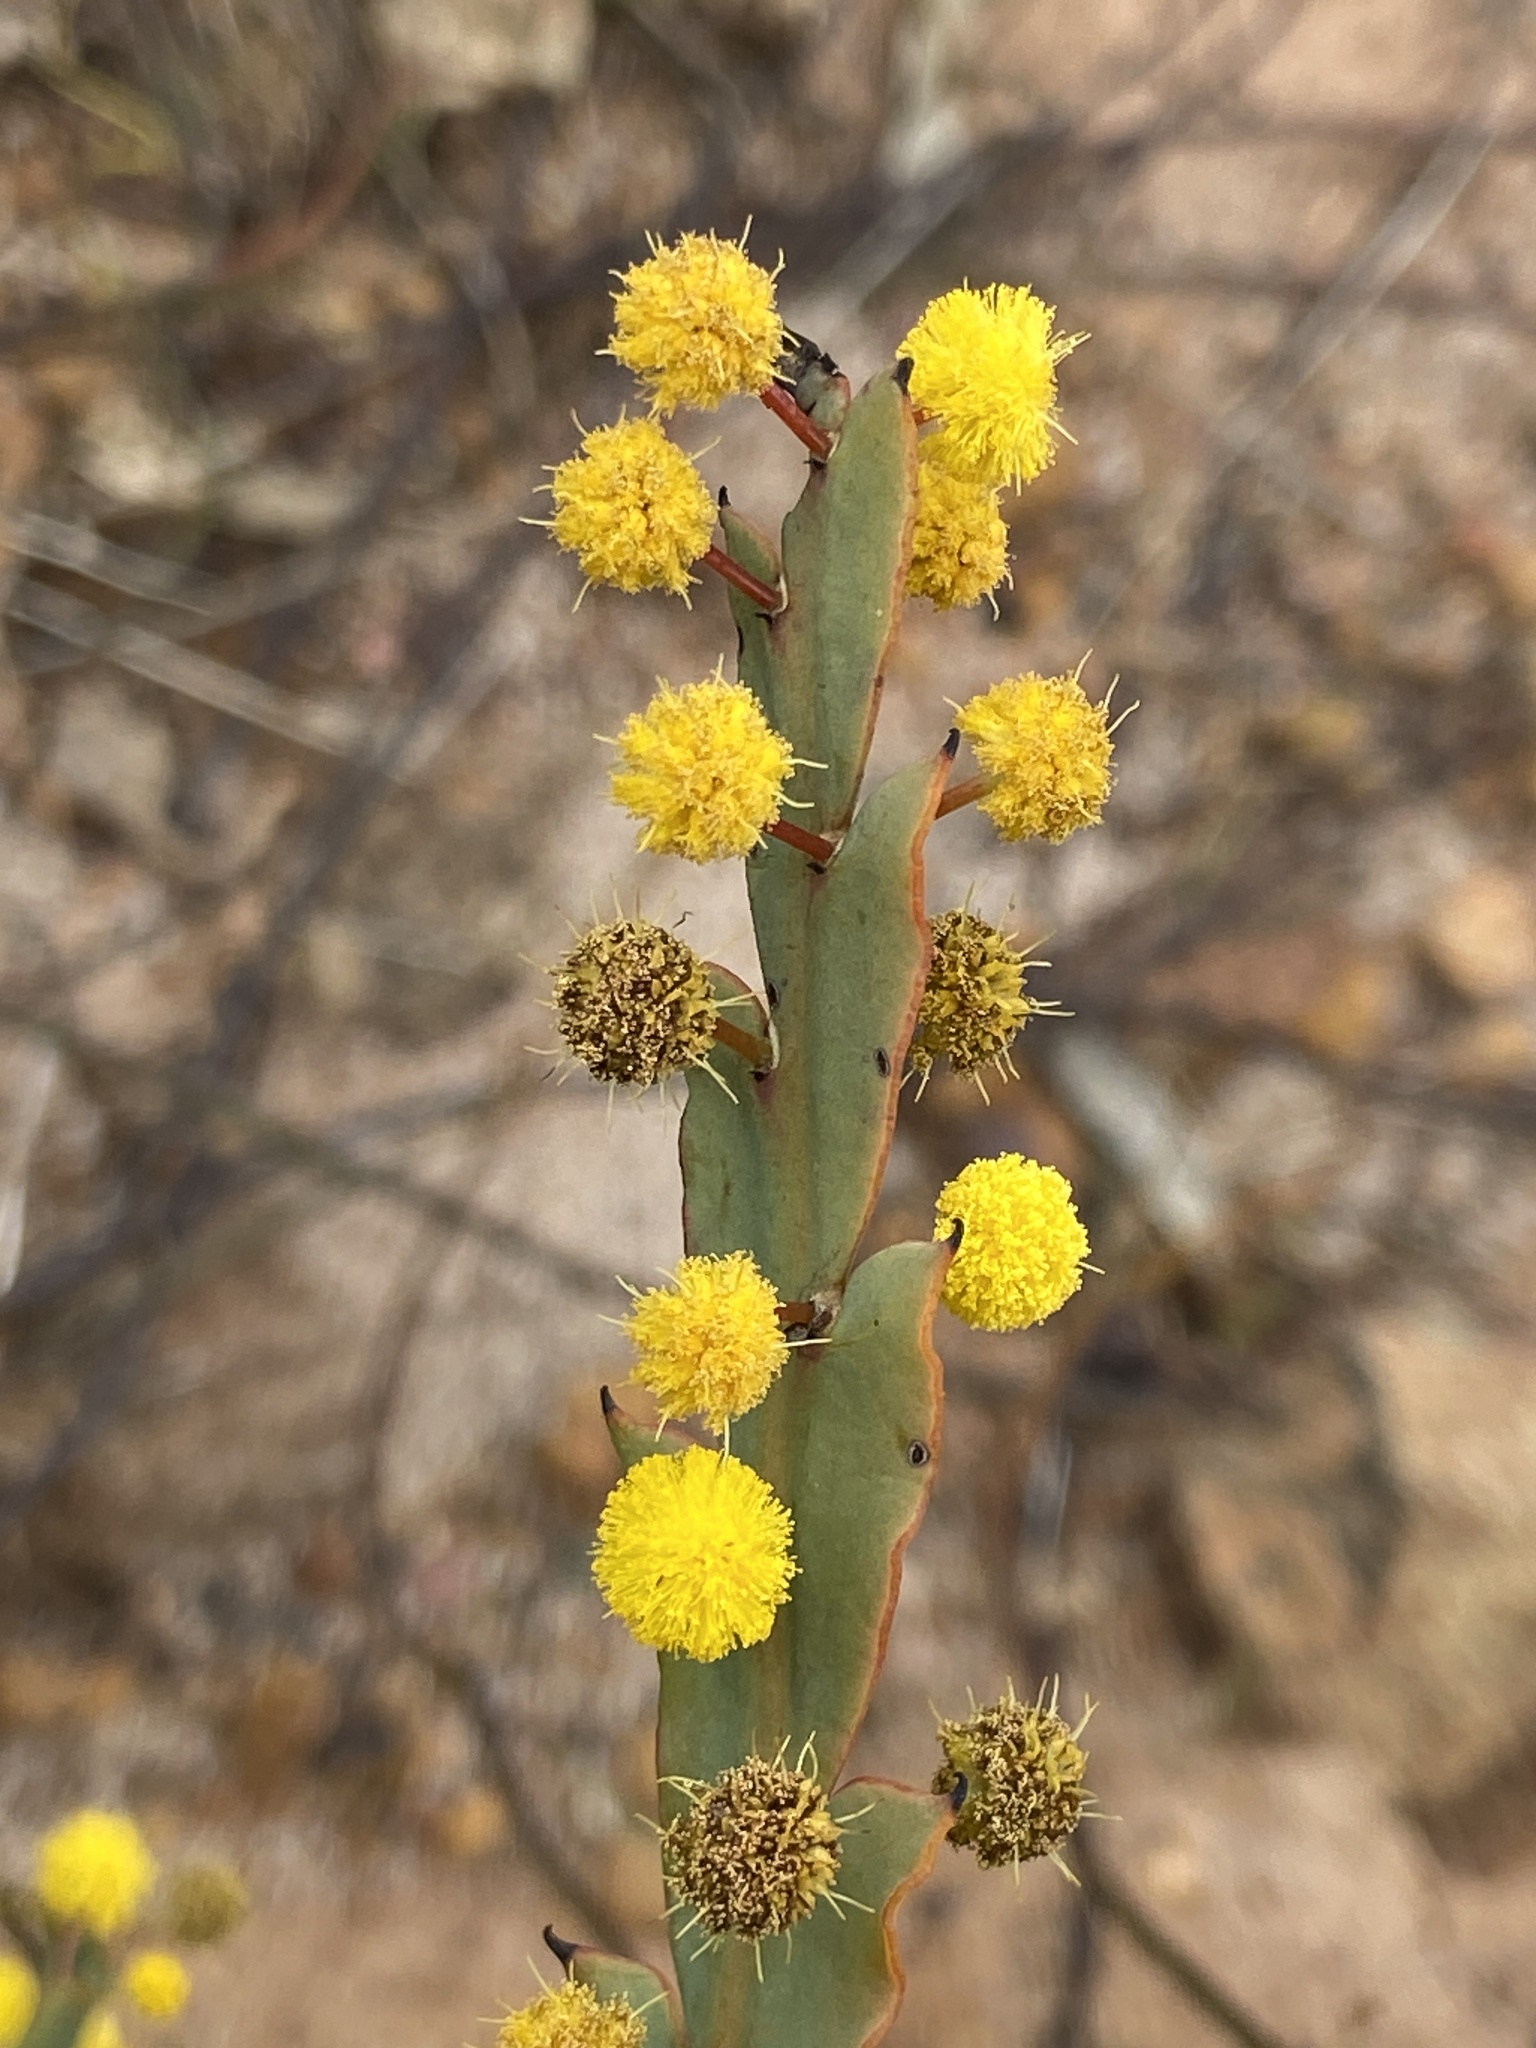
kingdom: Plantae
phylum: Tracheophyta
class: Magnoliopsida
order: Fabales
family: Fabaceae
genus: Acacia
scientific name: Acacia glaucoptera
